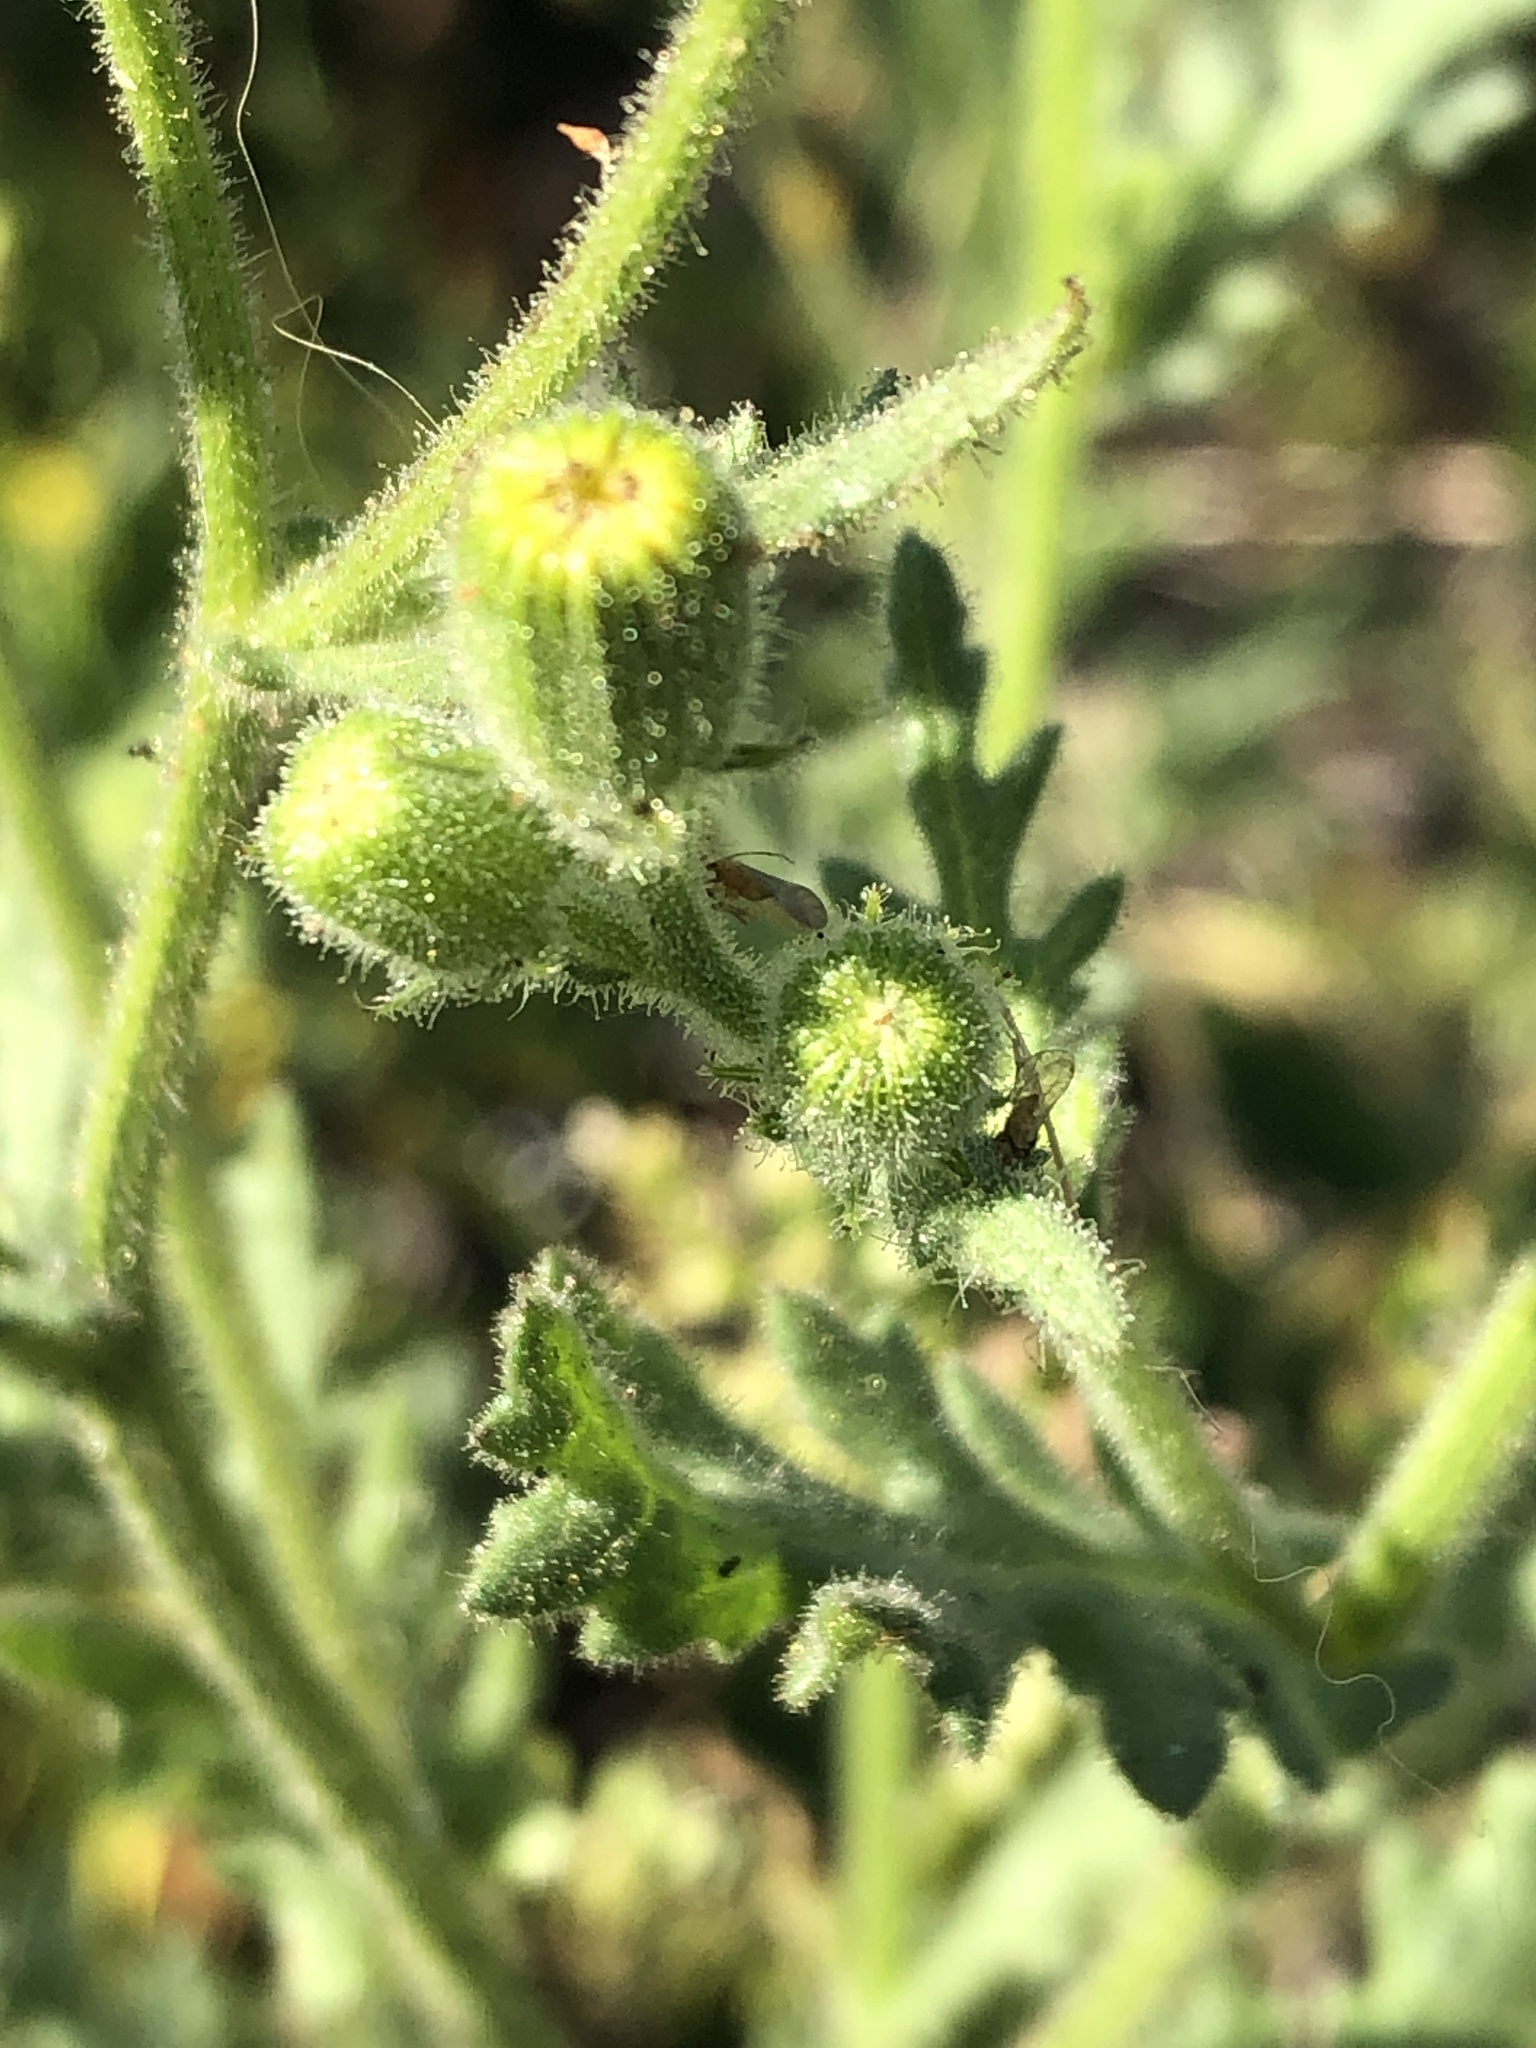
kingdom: Plantae
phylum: Tracheophyta
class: Magnoliopsida
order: Asterales
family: Asteraceae
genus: Senecio
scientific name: Senecio viscosus
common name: Sticky groundsel
